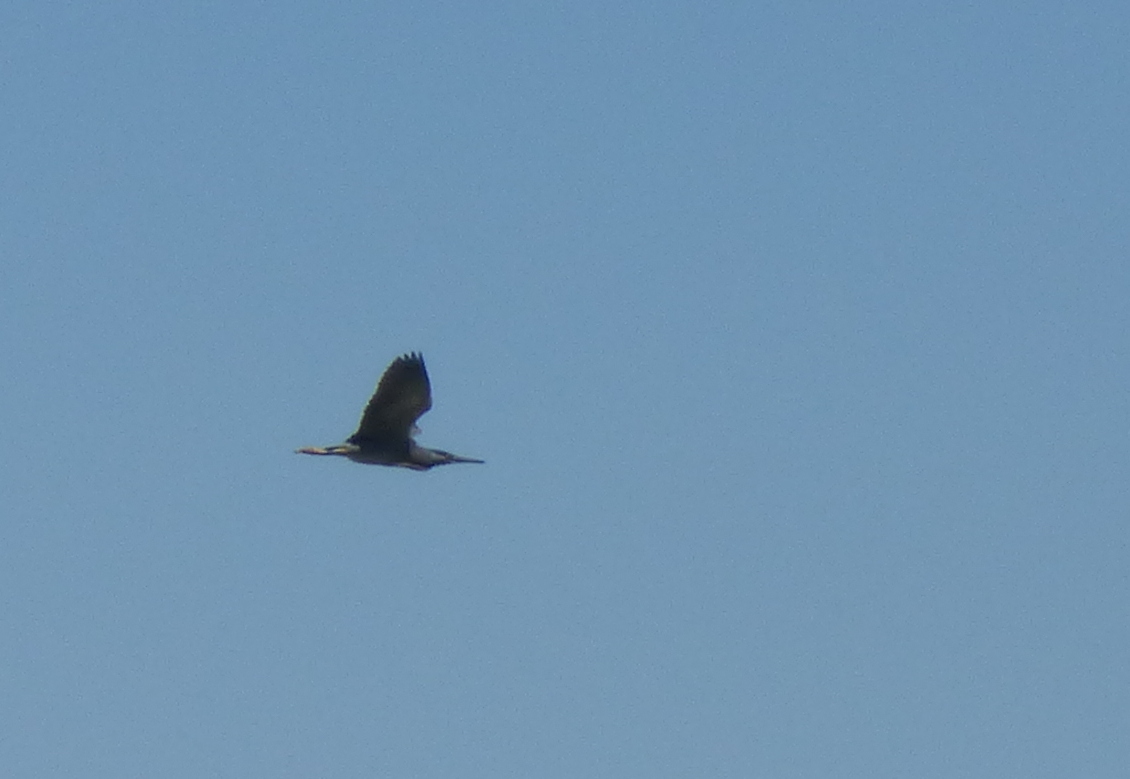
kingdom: Animalia
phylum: Chordata
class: Aves
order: Pelecaniformes
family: Ardeidae
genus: Butorides
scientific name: Butorides striata
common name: Striated heron
